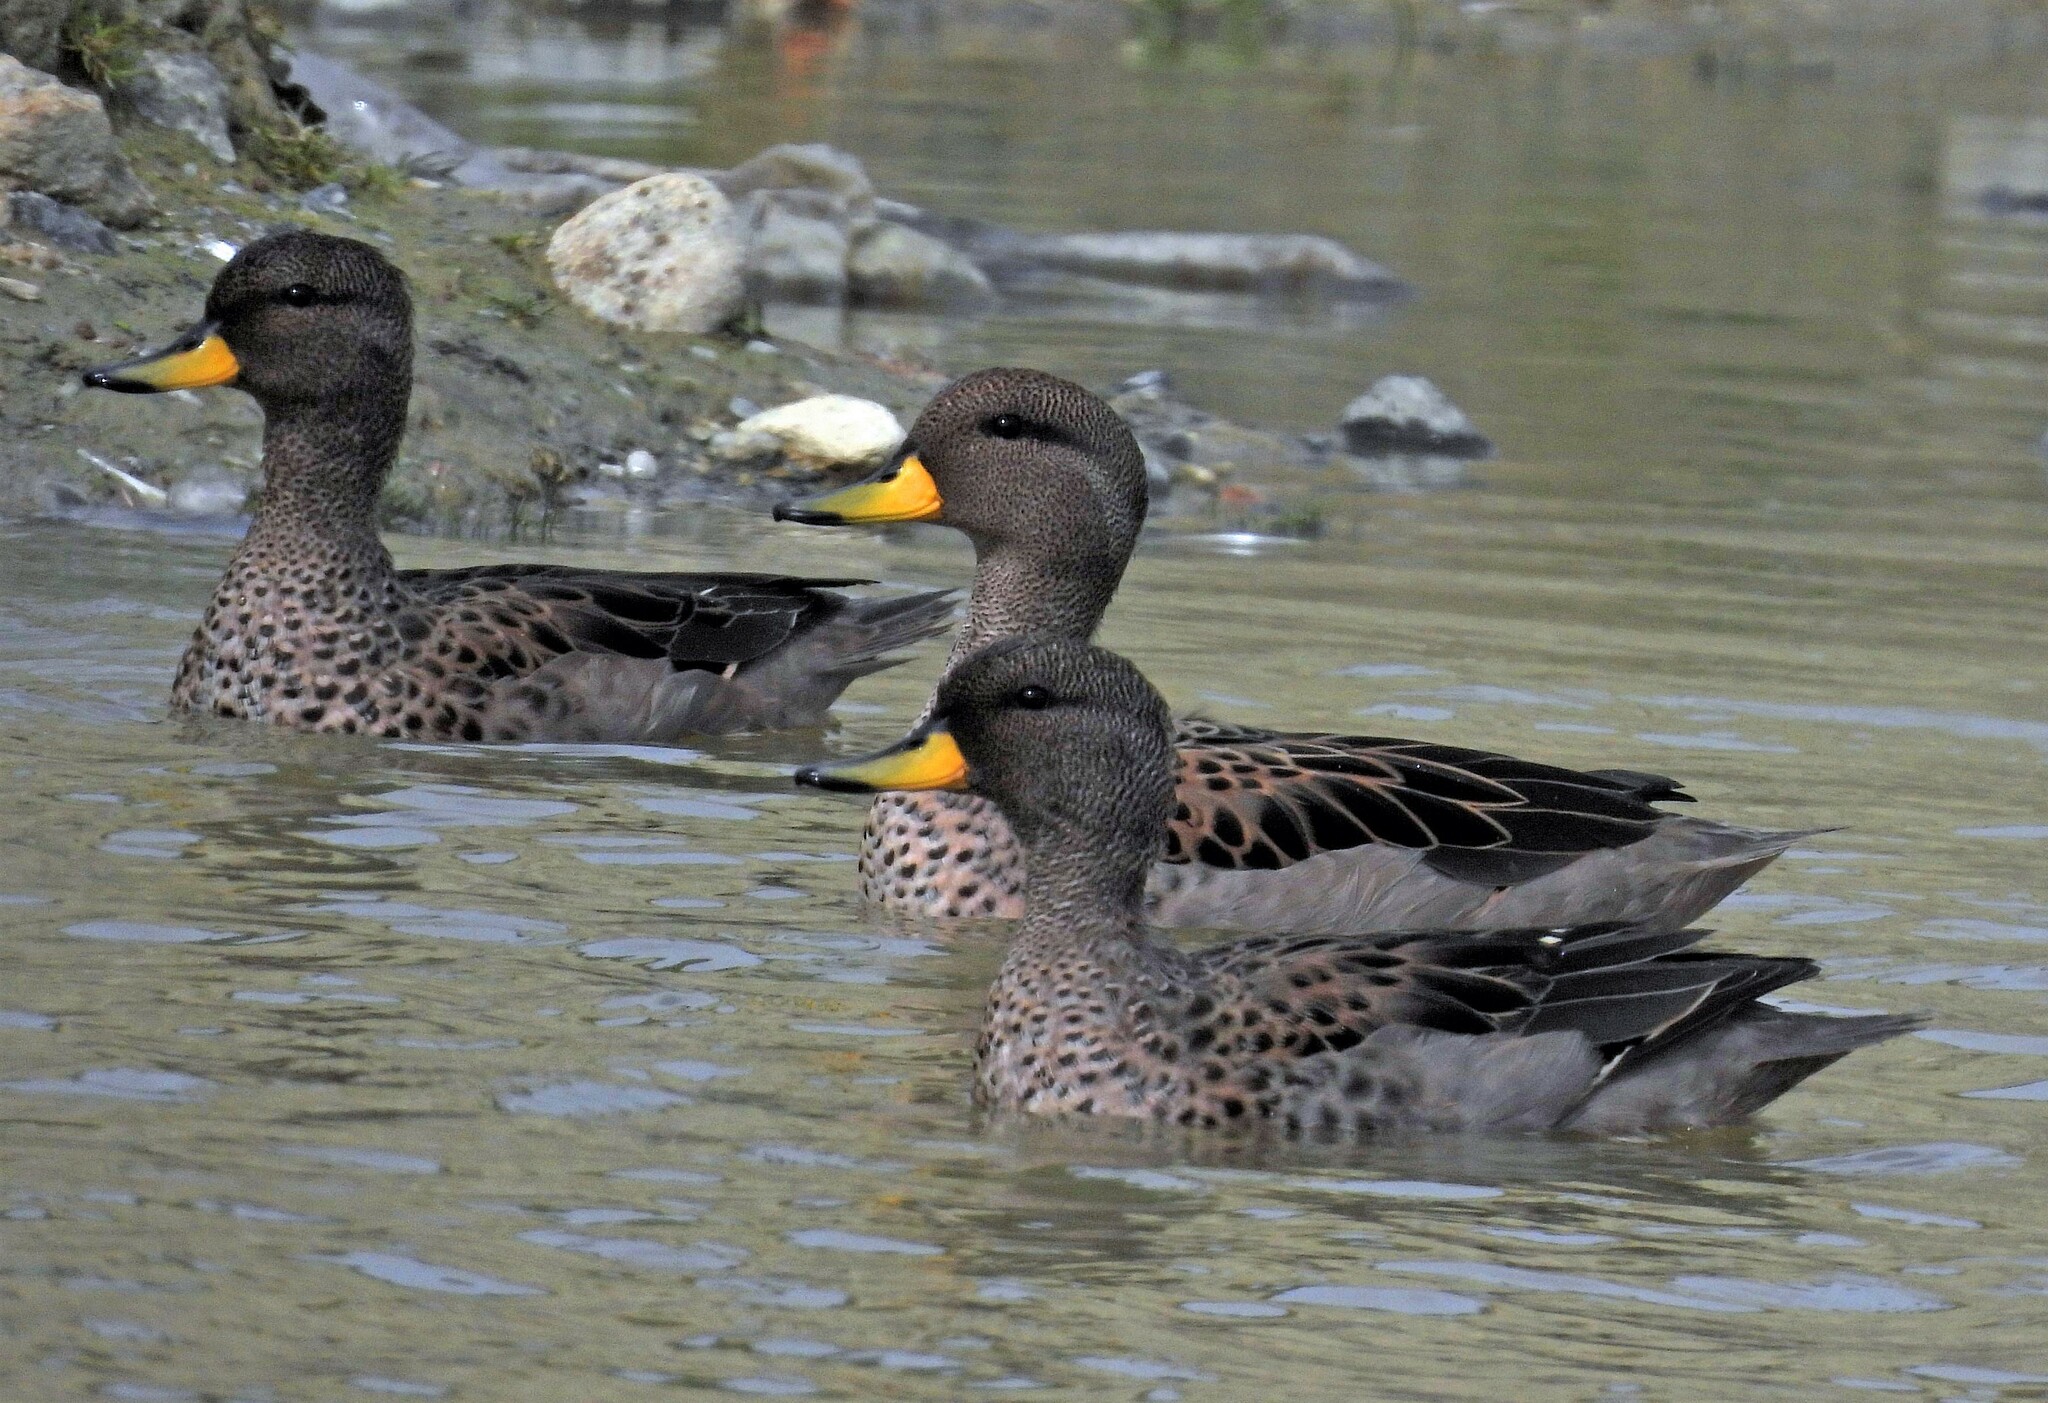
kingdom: Animalia
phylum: Chordata
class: Aves
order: Anseriformes
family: Anatidae
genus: Anas
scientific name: Anas flavirostris
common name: Yellow-billed teal
